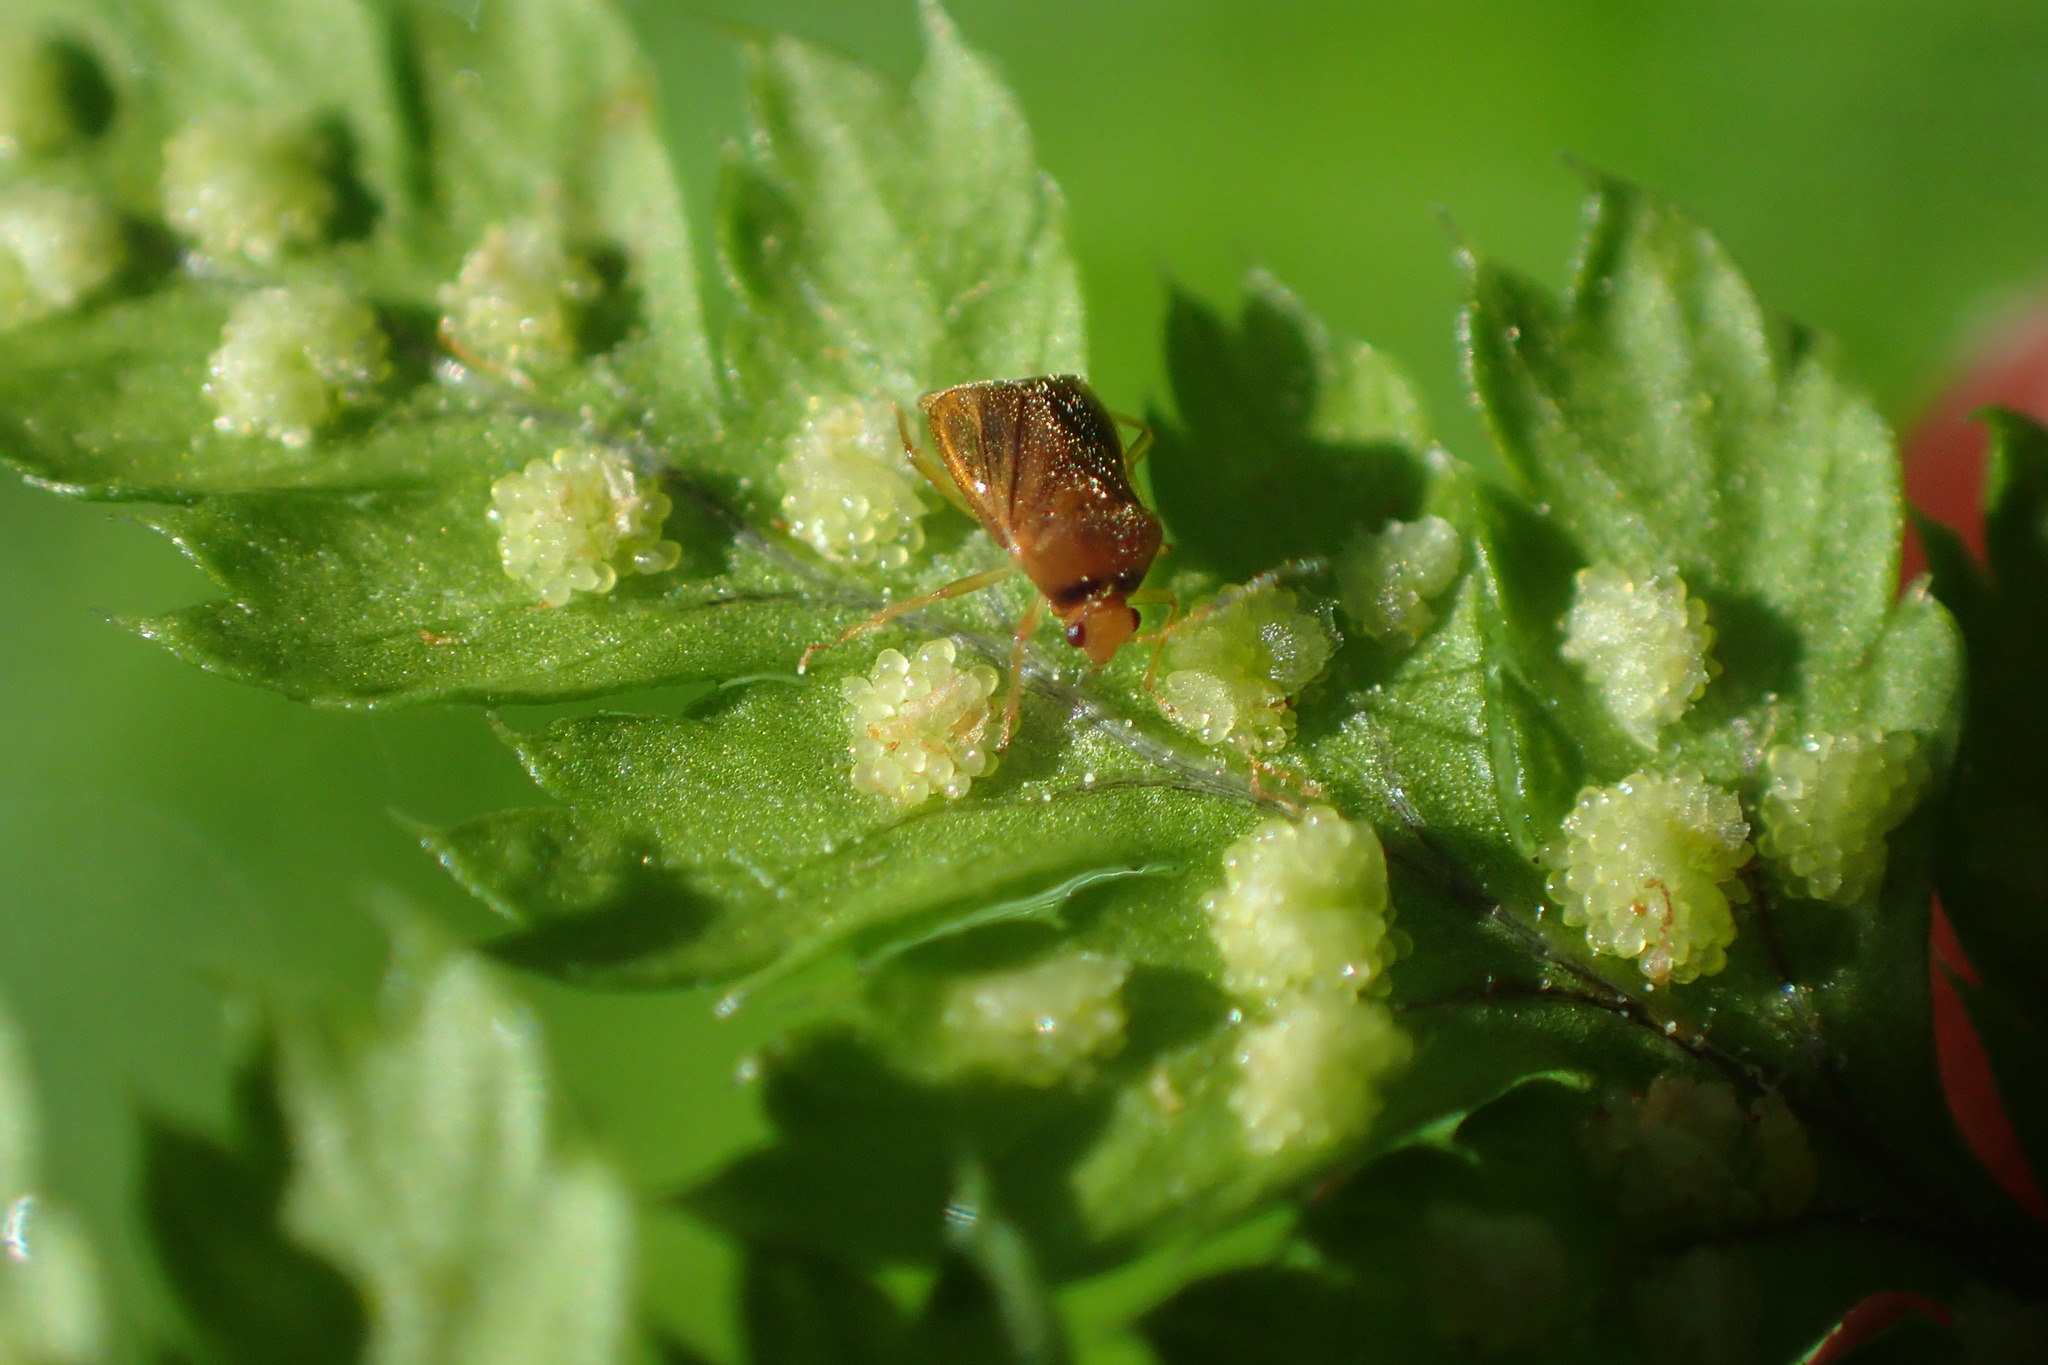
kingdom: Animalia
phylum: Arthropoda
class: Insecta
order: Hemiptera
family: Miridae
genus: Monalocoris
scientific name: Monalocoris filicis
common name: Bracken bug
